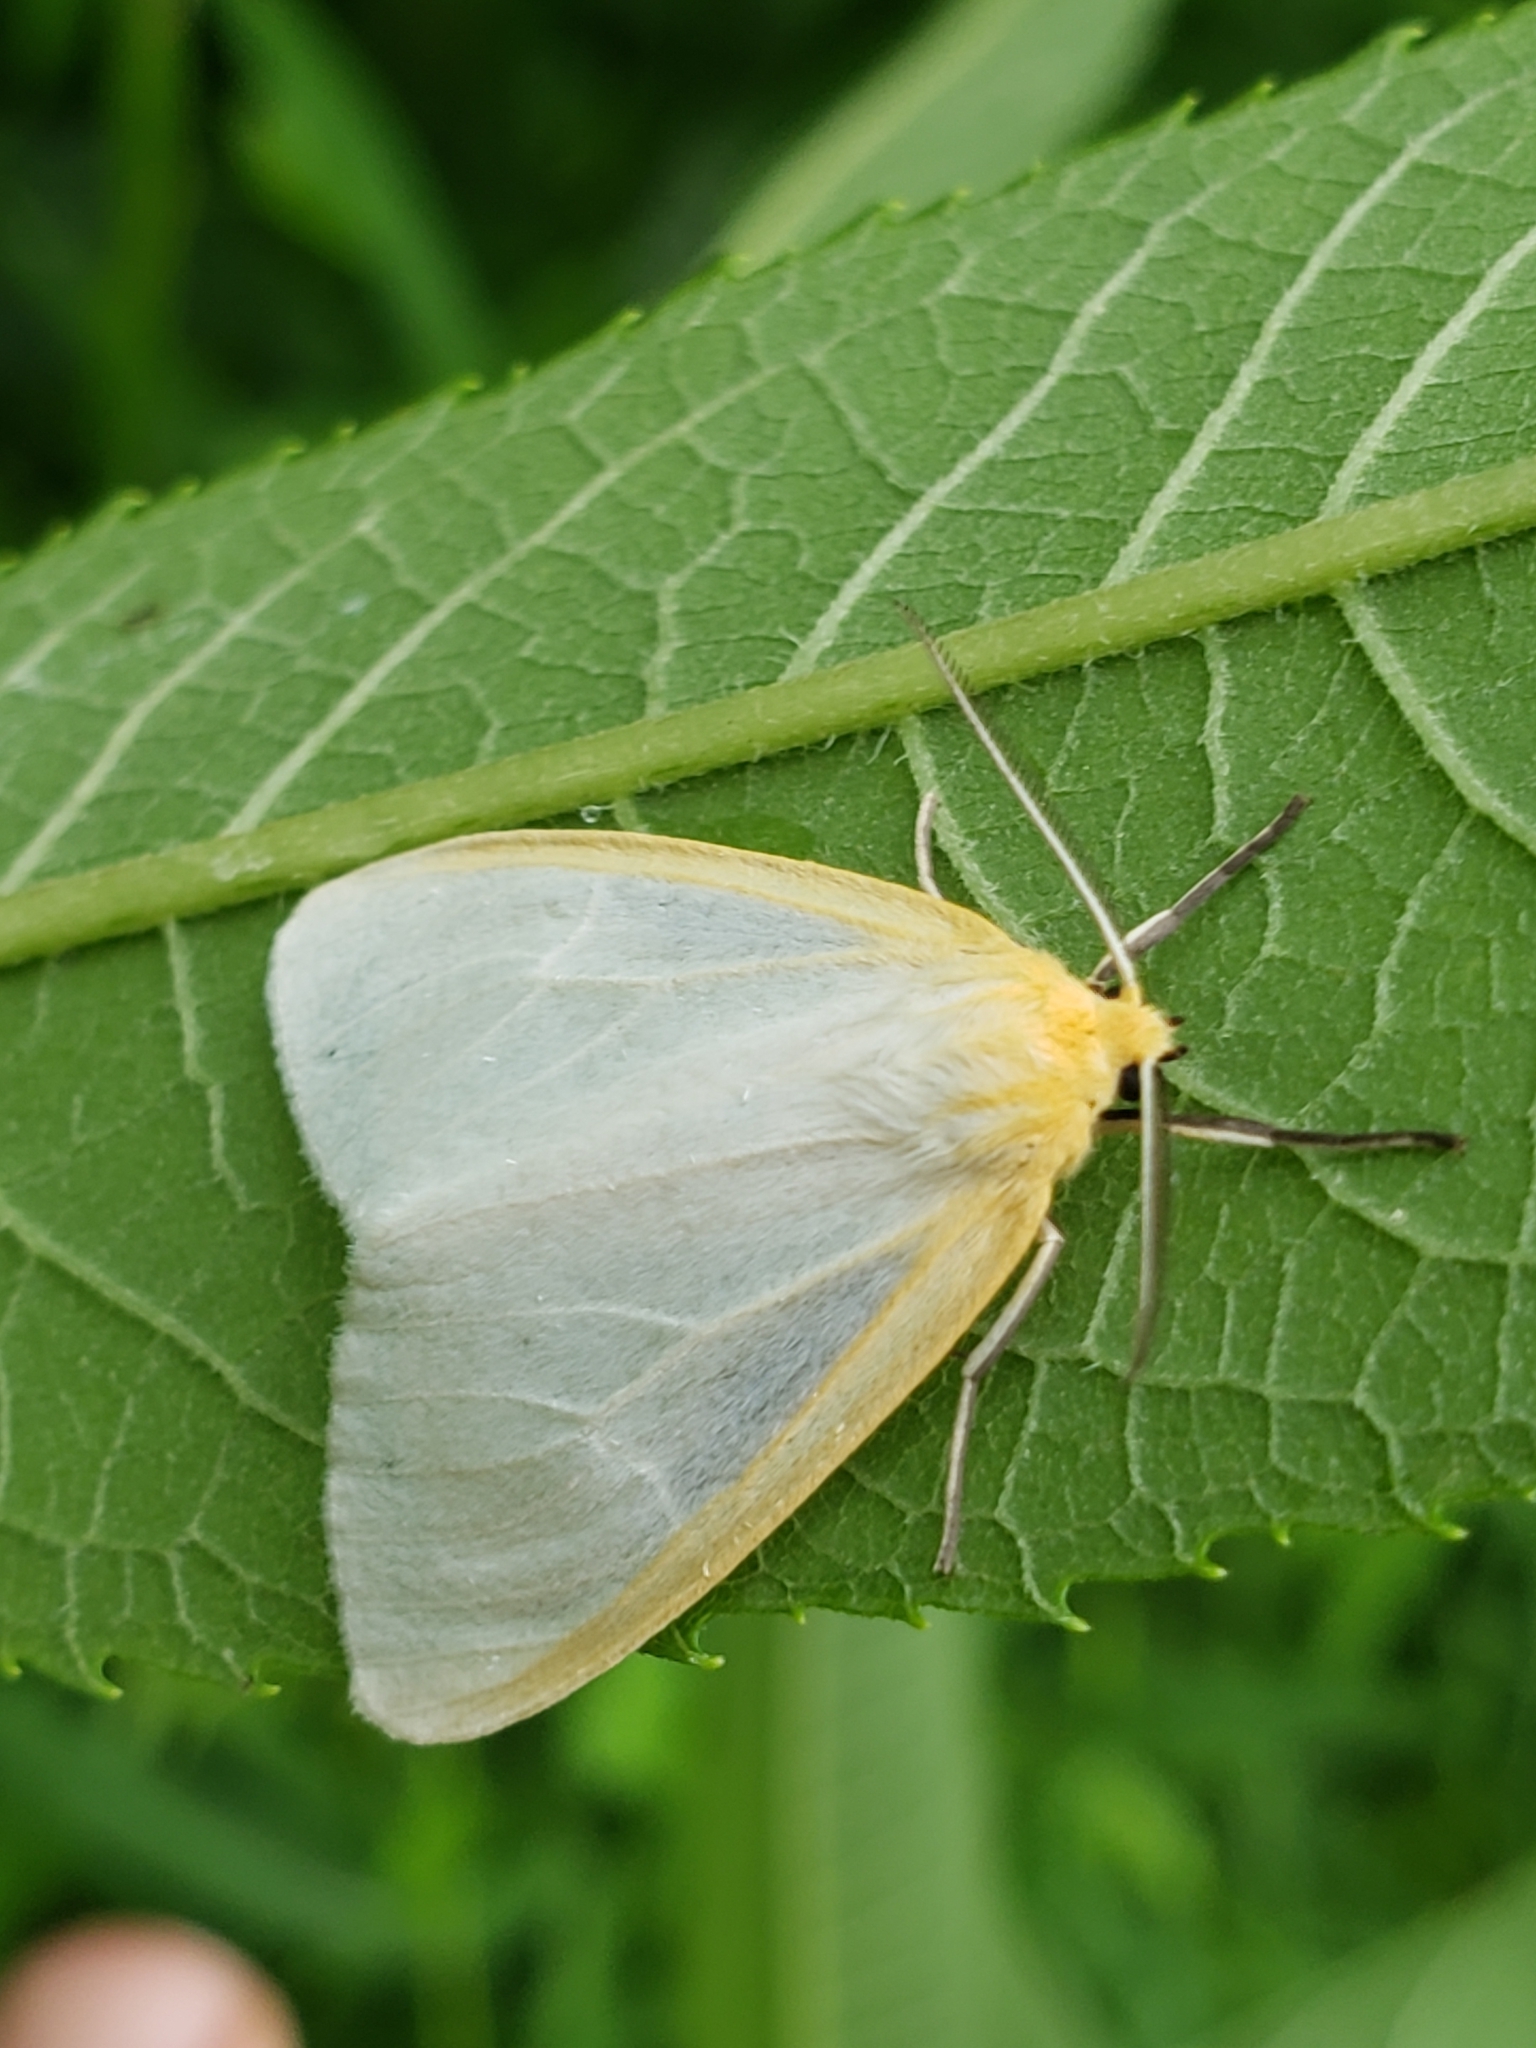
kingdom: Animalia
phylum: Arthropoda
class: Insecta
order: Lepidoptera
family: Erebidae
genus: Cycnia
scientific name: Cycnia tenera
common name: Delicate cycnia moth
